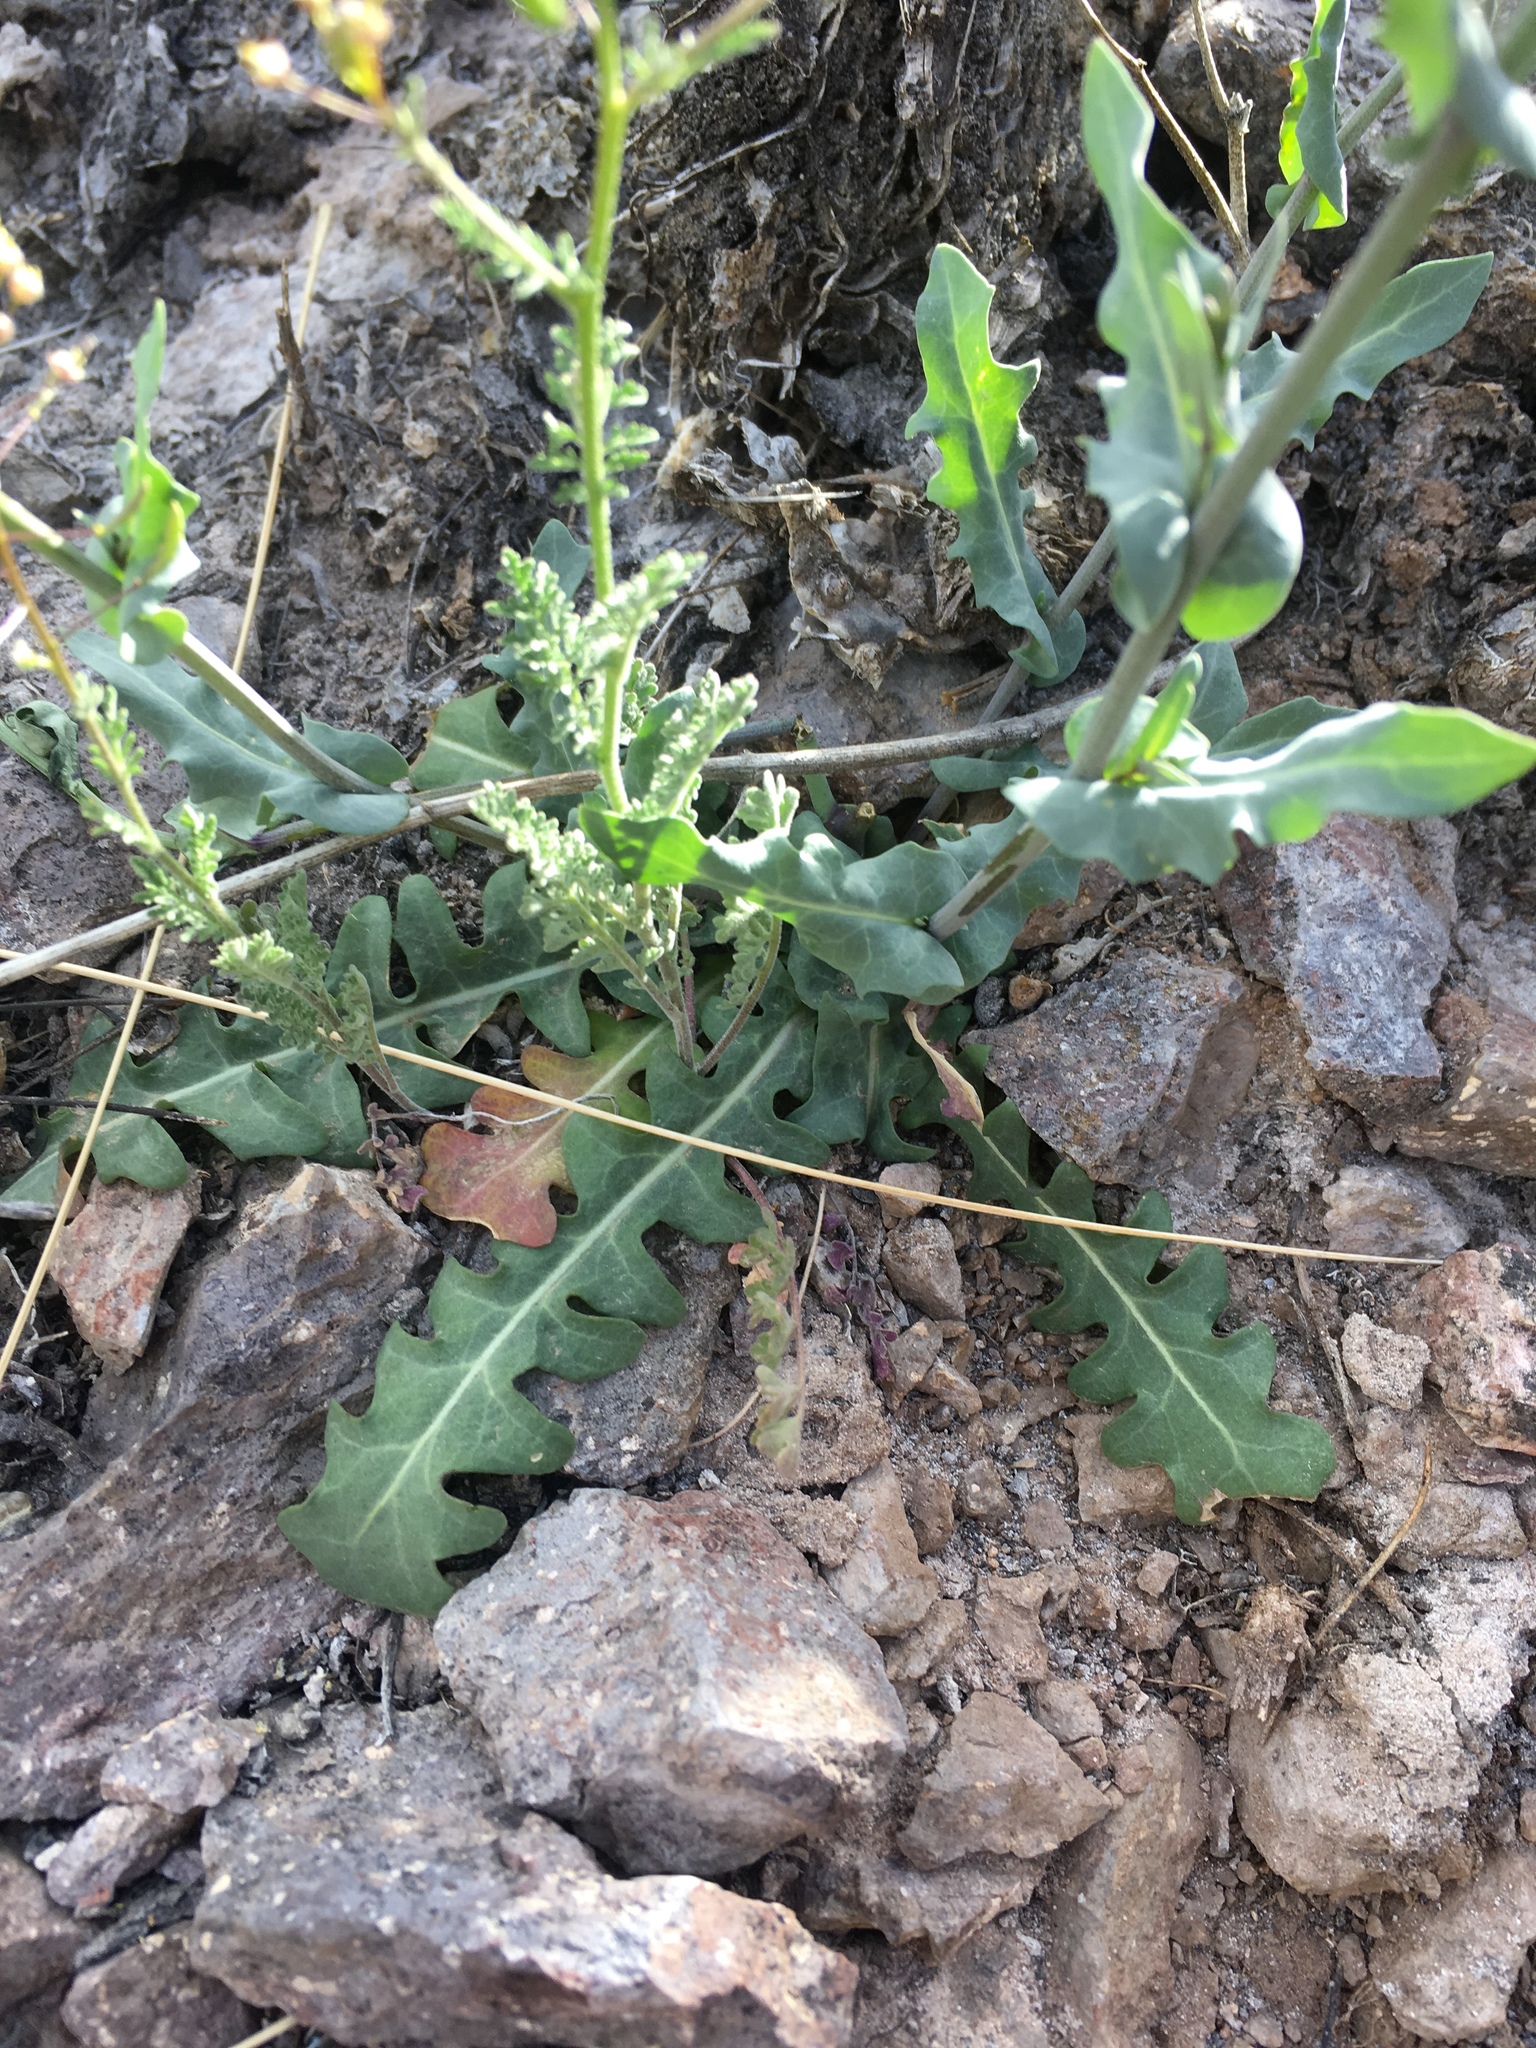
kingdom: Plantae
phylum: Tracheophyta
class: Magnoliopsida
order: Brassicales
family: Brassicaceae
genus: Mostacillastrum
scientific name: Mostacillastrum purpusii
